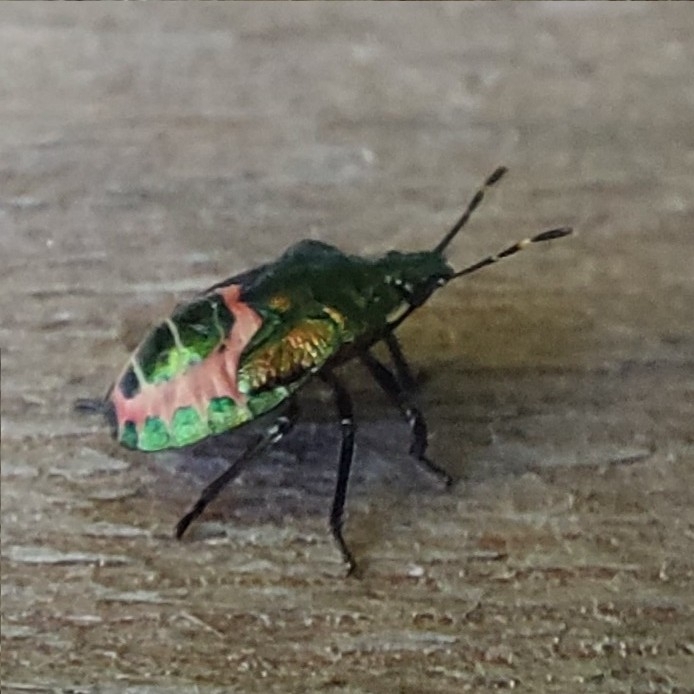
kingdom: Animalia
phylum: Arthropoda
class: Insecta
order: Hemiptera
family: Pentatomidae
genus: Troilus
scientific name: Troilus luridus
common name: Bronze shieldbug
